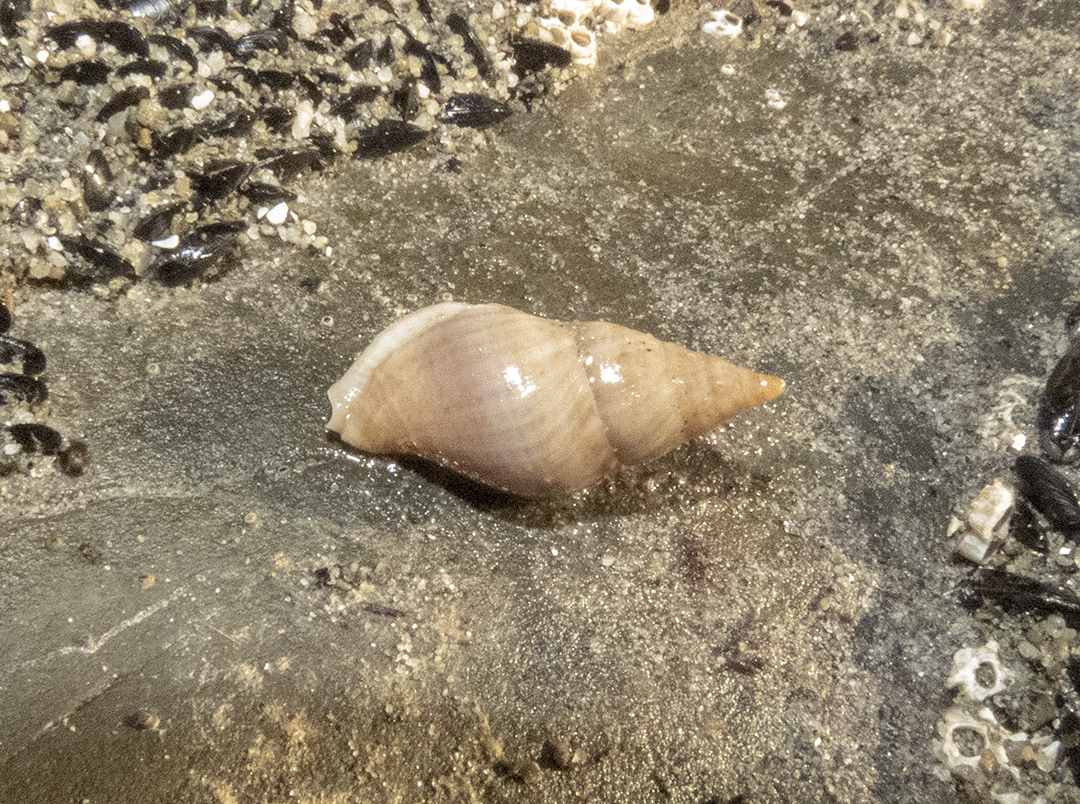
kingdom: Animalia
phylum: Mollusca
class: Gastropoda
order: Neogastropoda
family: Tudiclidae
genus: Buccinulum
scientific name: Buccinulum littorinoides
